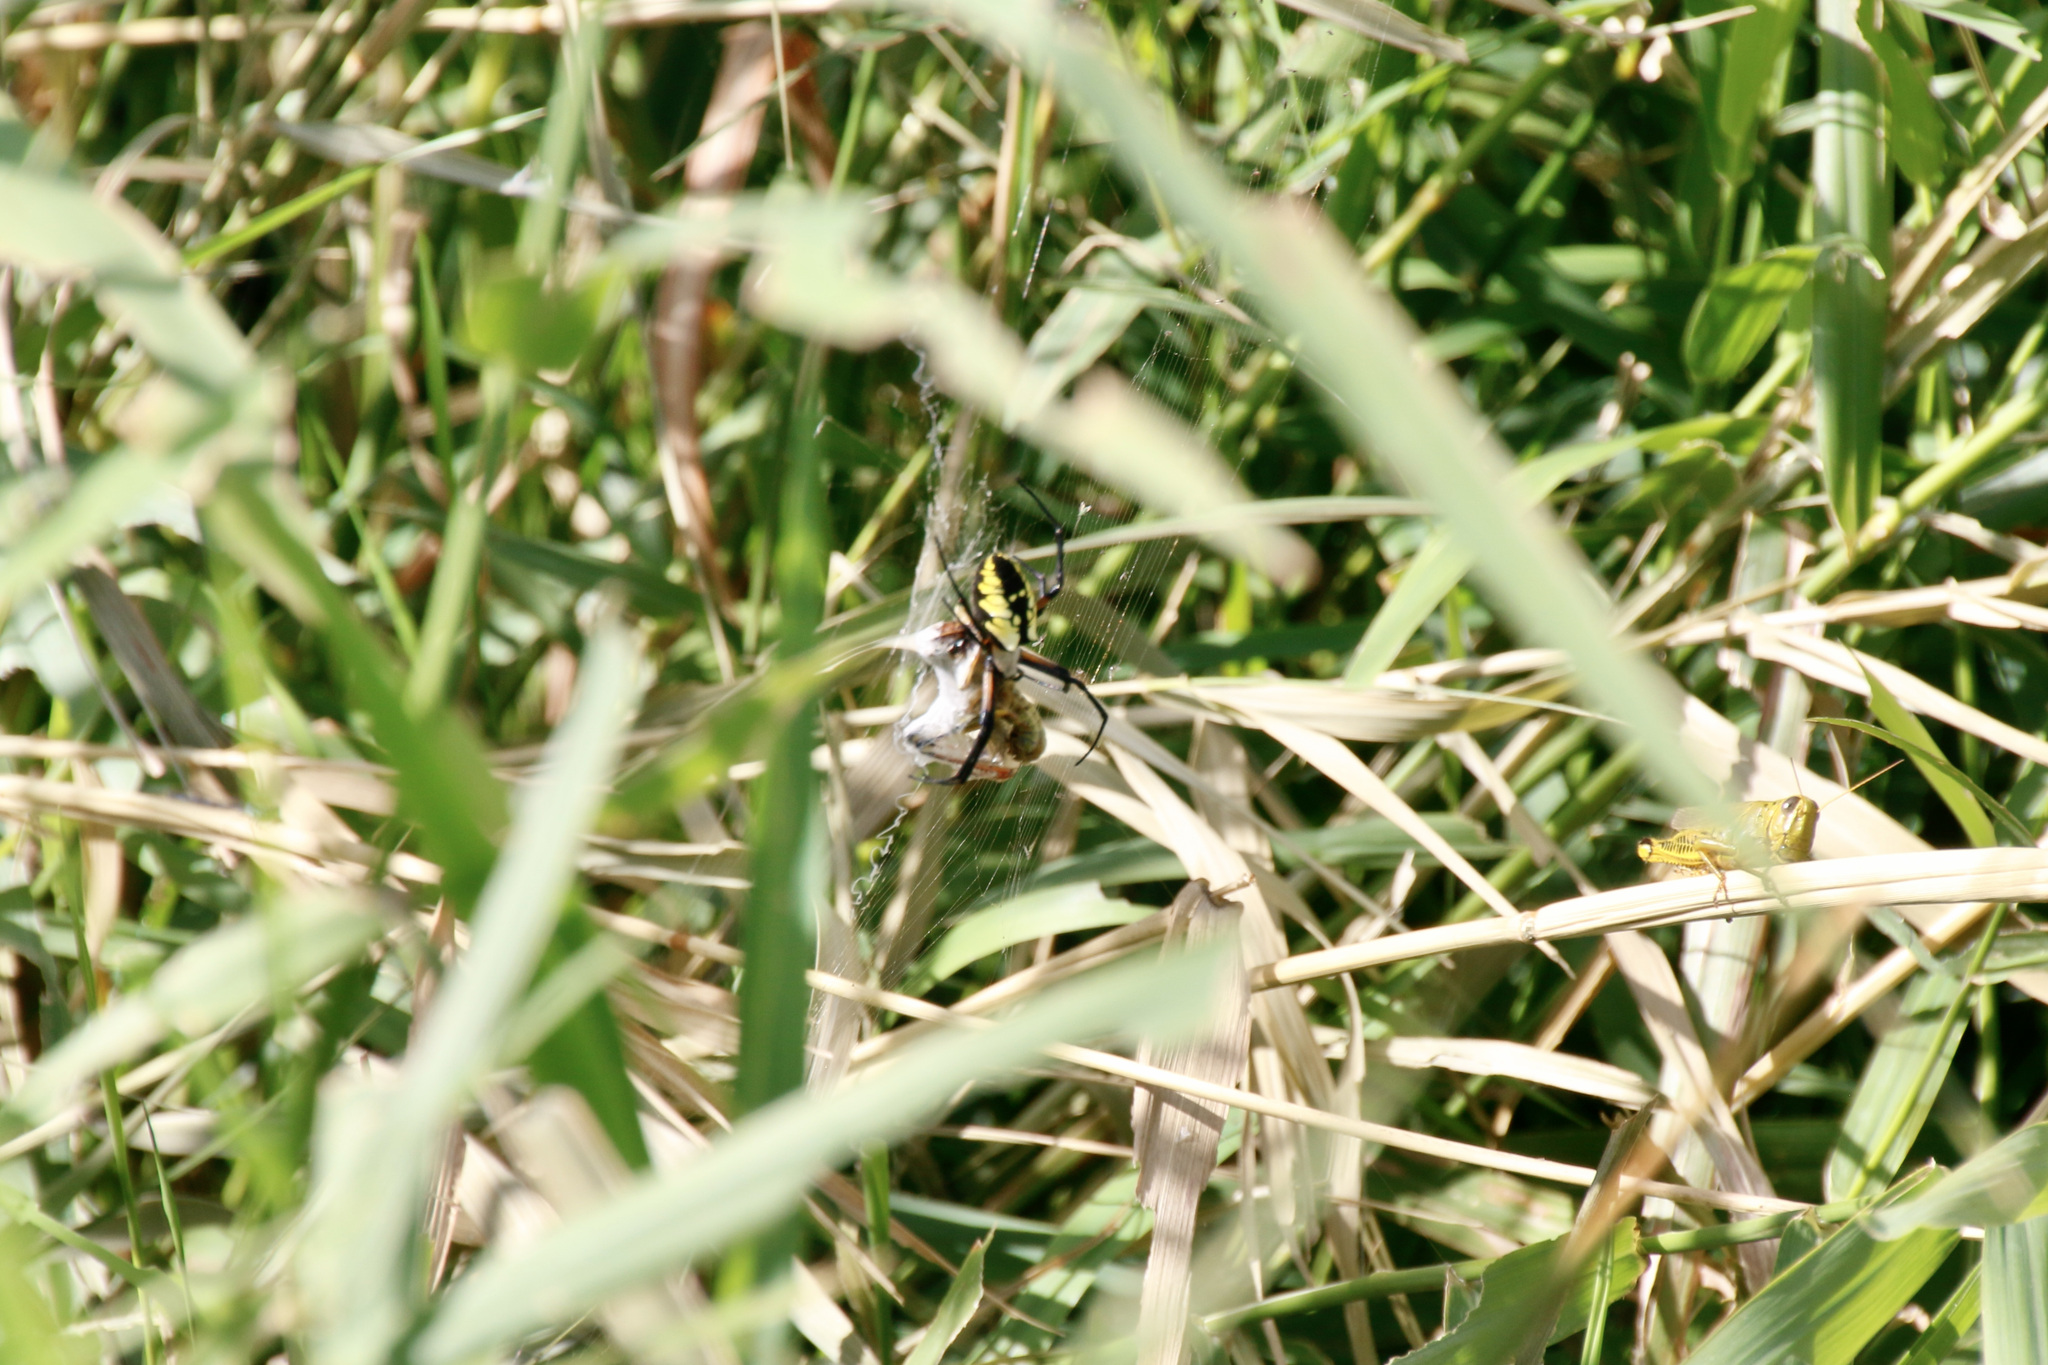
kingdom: Animalia
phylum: Arthropoda
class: Arachnida
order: Araneae
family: Araneidae
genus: Argiope
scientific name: Argiope aurantia
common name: Orb weavers
